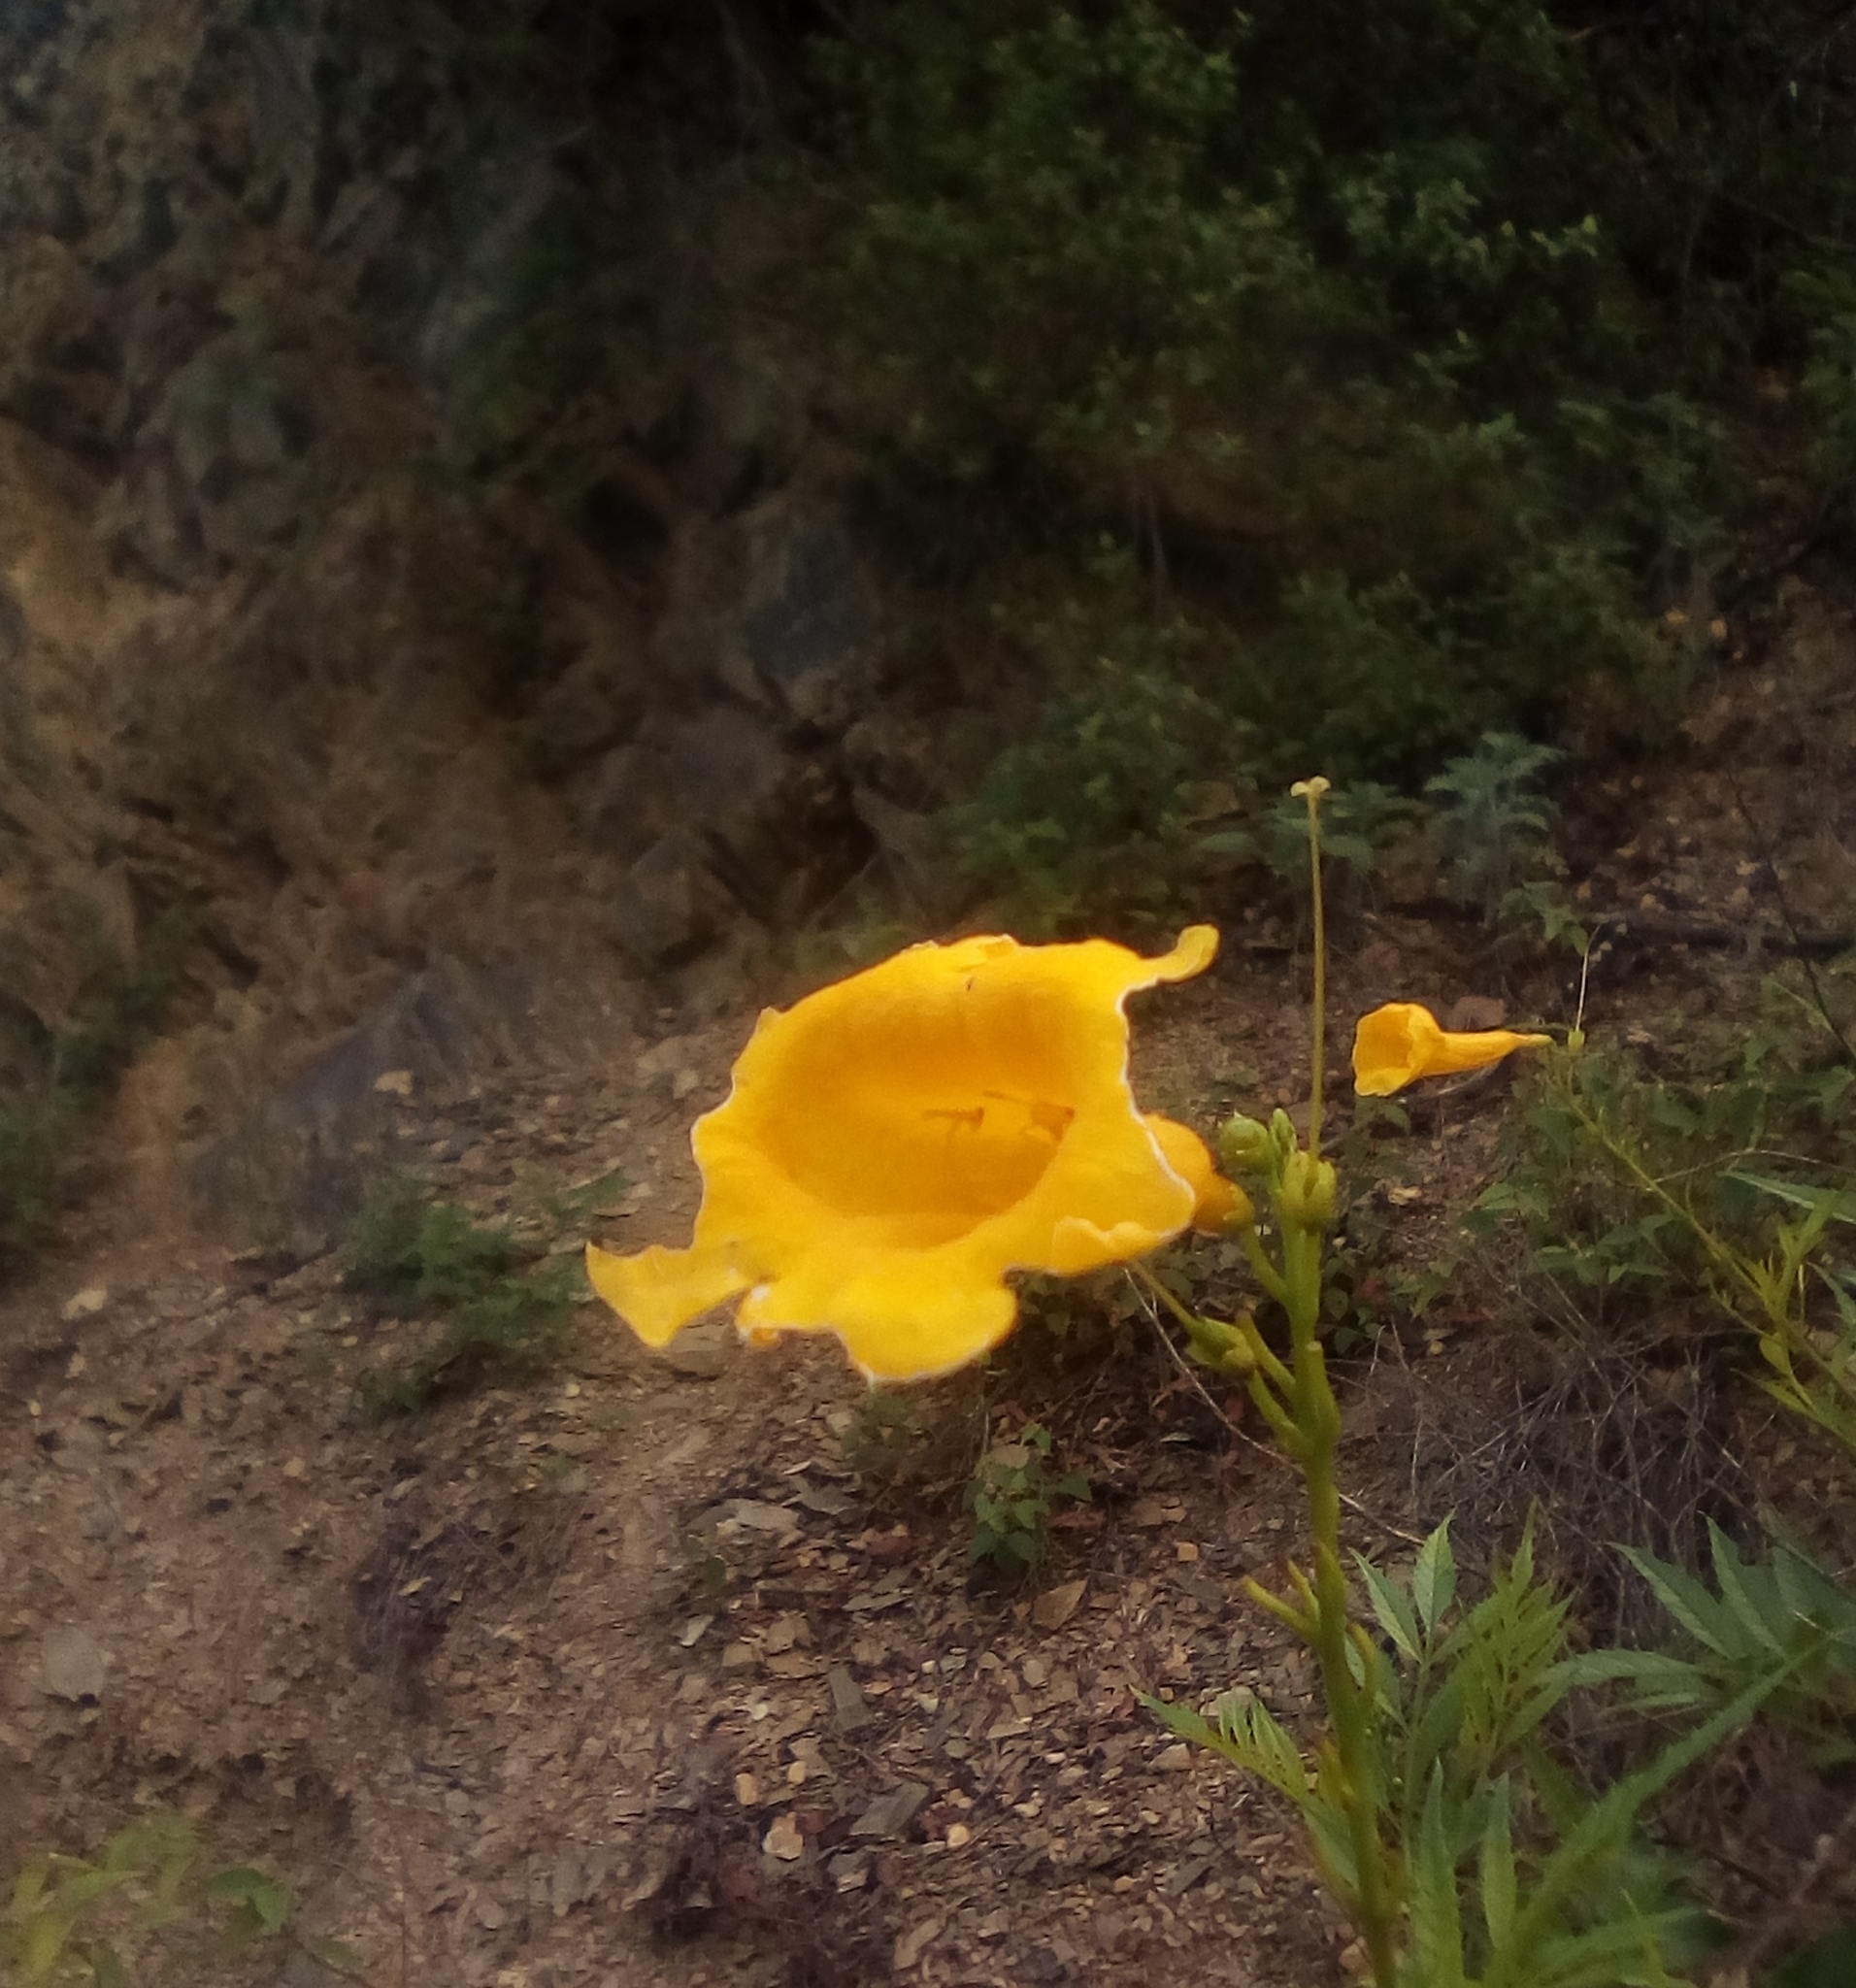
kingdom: Plantae
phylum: Tracheophyta
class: Magnoliopsida
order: Lamiales
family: Bignoniaceae
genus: Tecoma
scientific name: Tecoma stans
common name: Yellow trumpetbush
